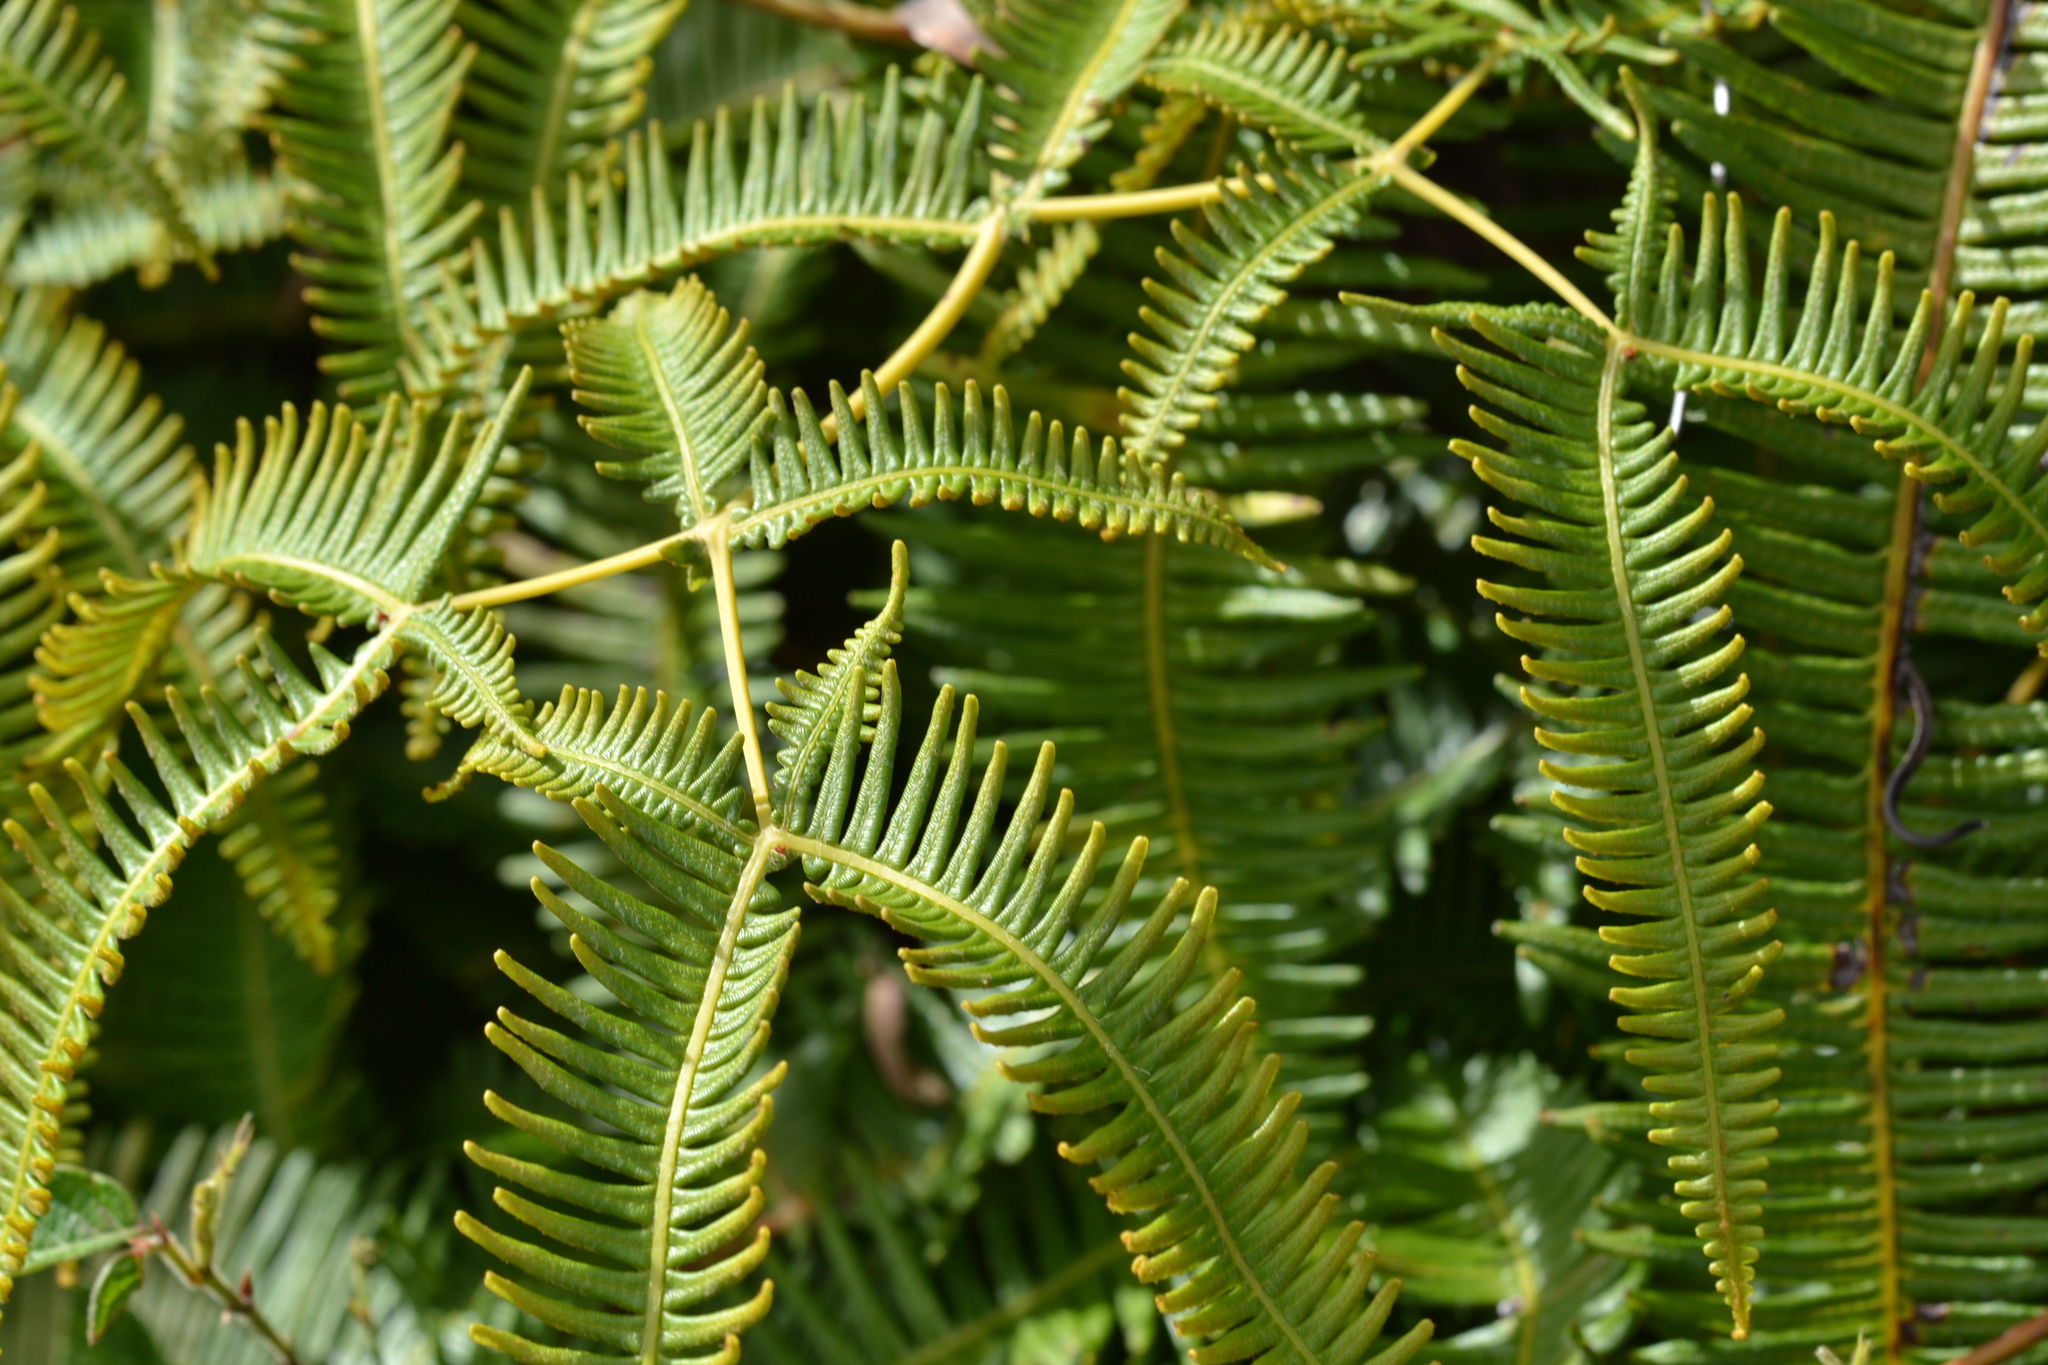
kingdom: Plantae
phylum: Tracheophyta
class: Polypodiopsida
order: Gleicheniales
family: Gleicheniaceae
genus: Dicranopteris
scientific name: Dicranopteris linearis
